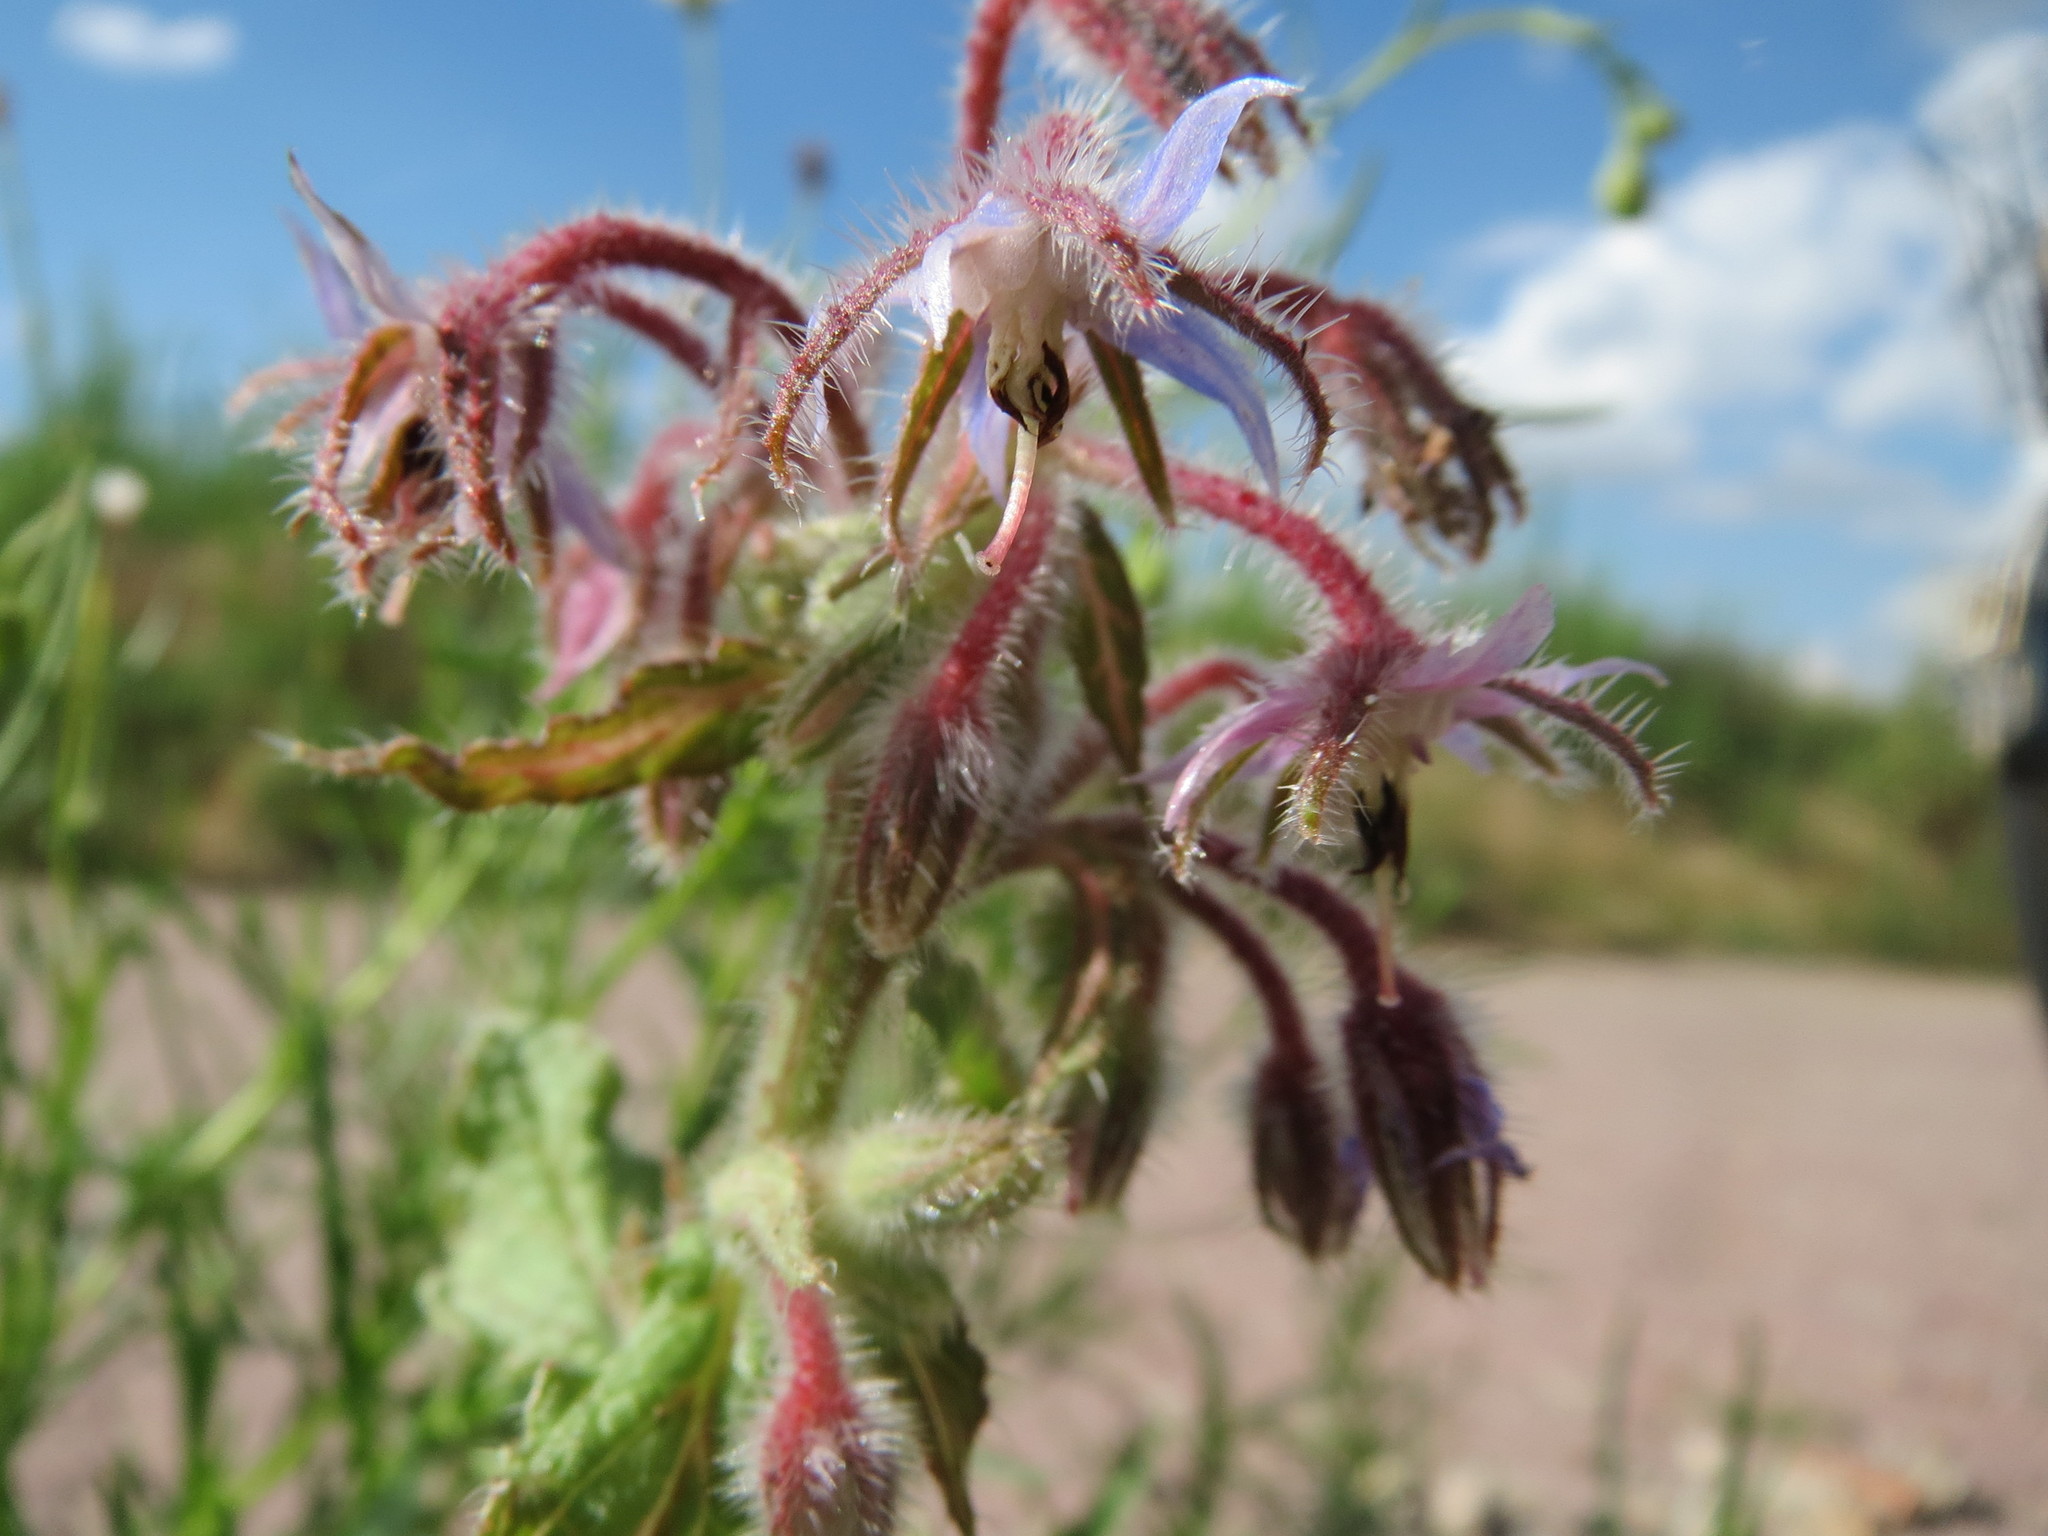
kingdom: Plantae
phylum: Tracheophyta
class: Magnoliopsida
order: Boraginales
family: Boraginaceae
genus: Borago
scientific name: Borago officinalis
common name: Borage
